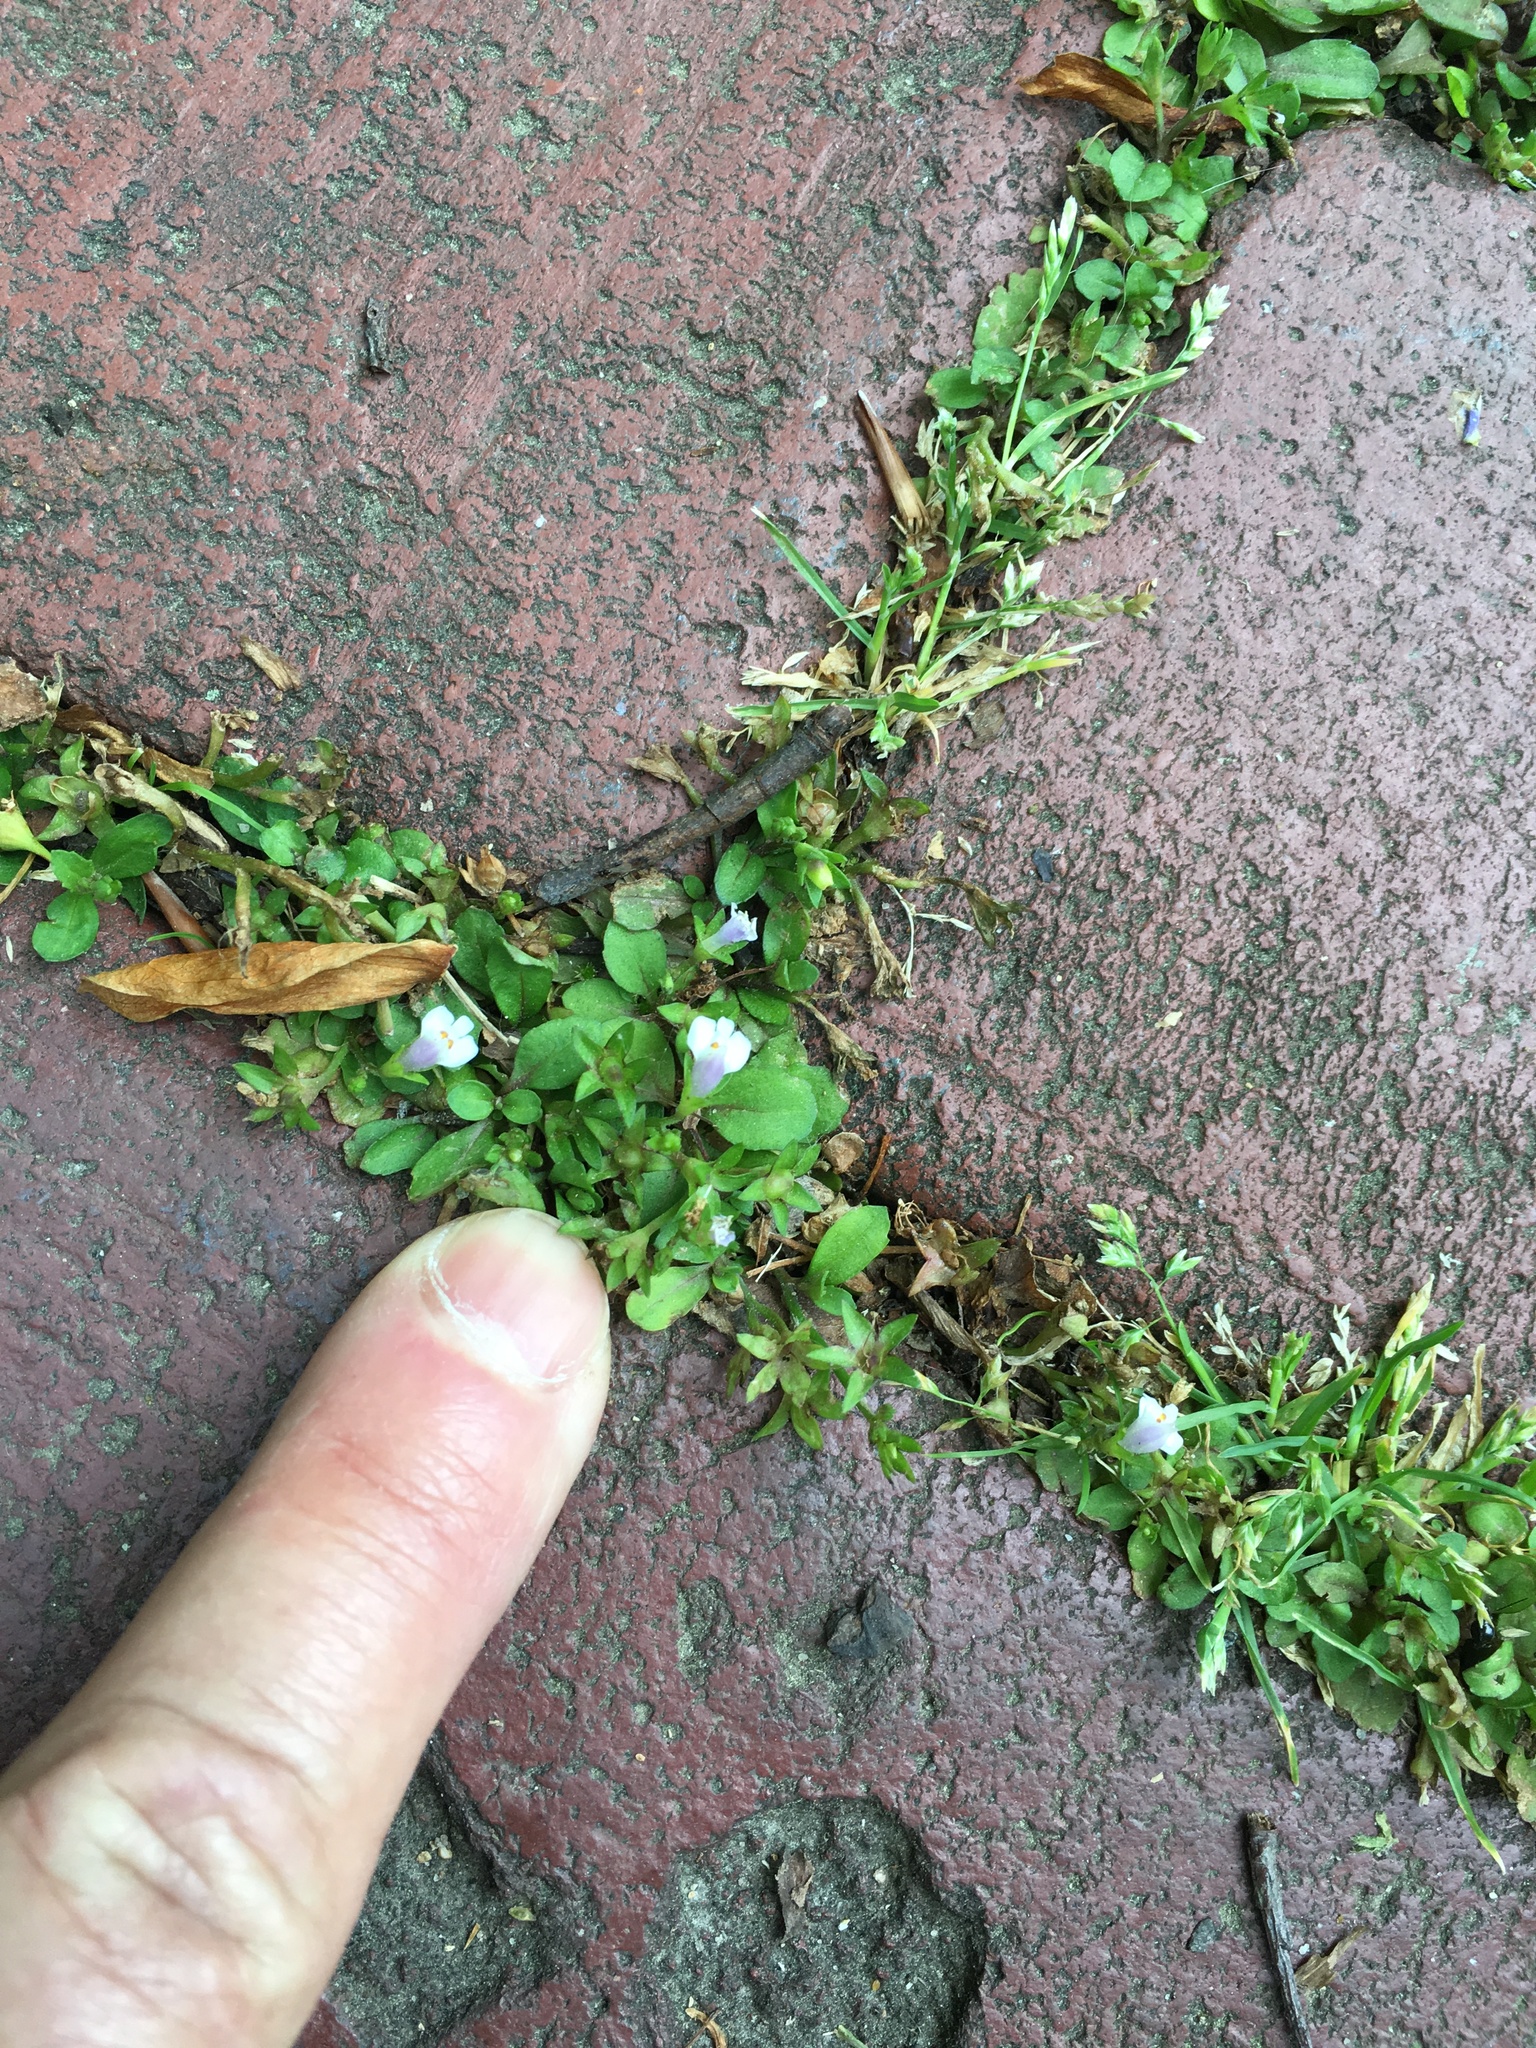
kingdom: Plantae
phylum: Tracheophyta
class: Magnoliopsida
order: Lamiales
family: Mazaceae
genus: Mazus
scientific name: Mazus pumilus
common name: Japanese mazus
